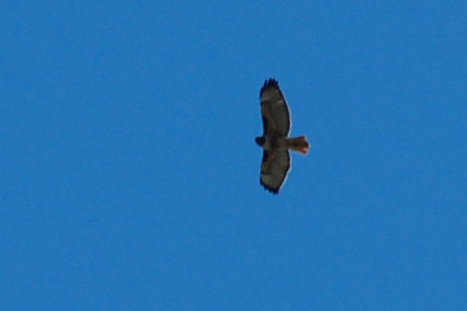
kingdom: Animalia
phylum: Chordata
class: Aves
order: Accipitriformes
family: Accipitridae
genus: Buteo
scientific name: Buteo jamaicensis
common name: Red-tailed hawk
